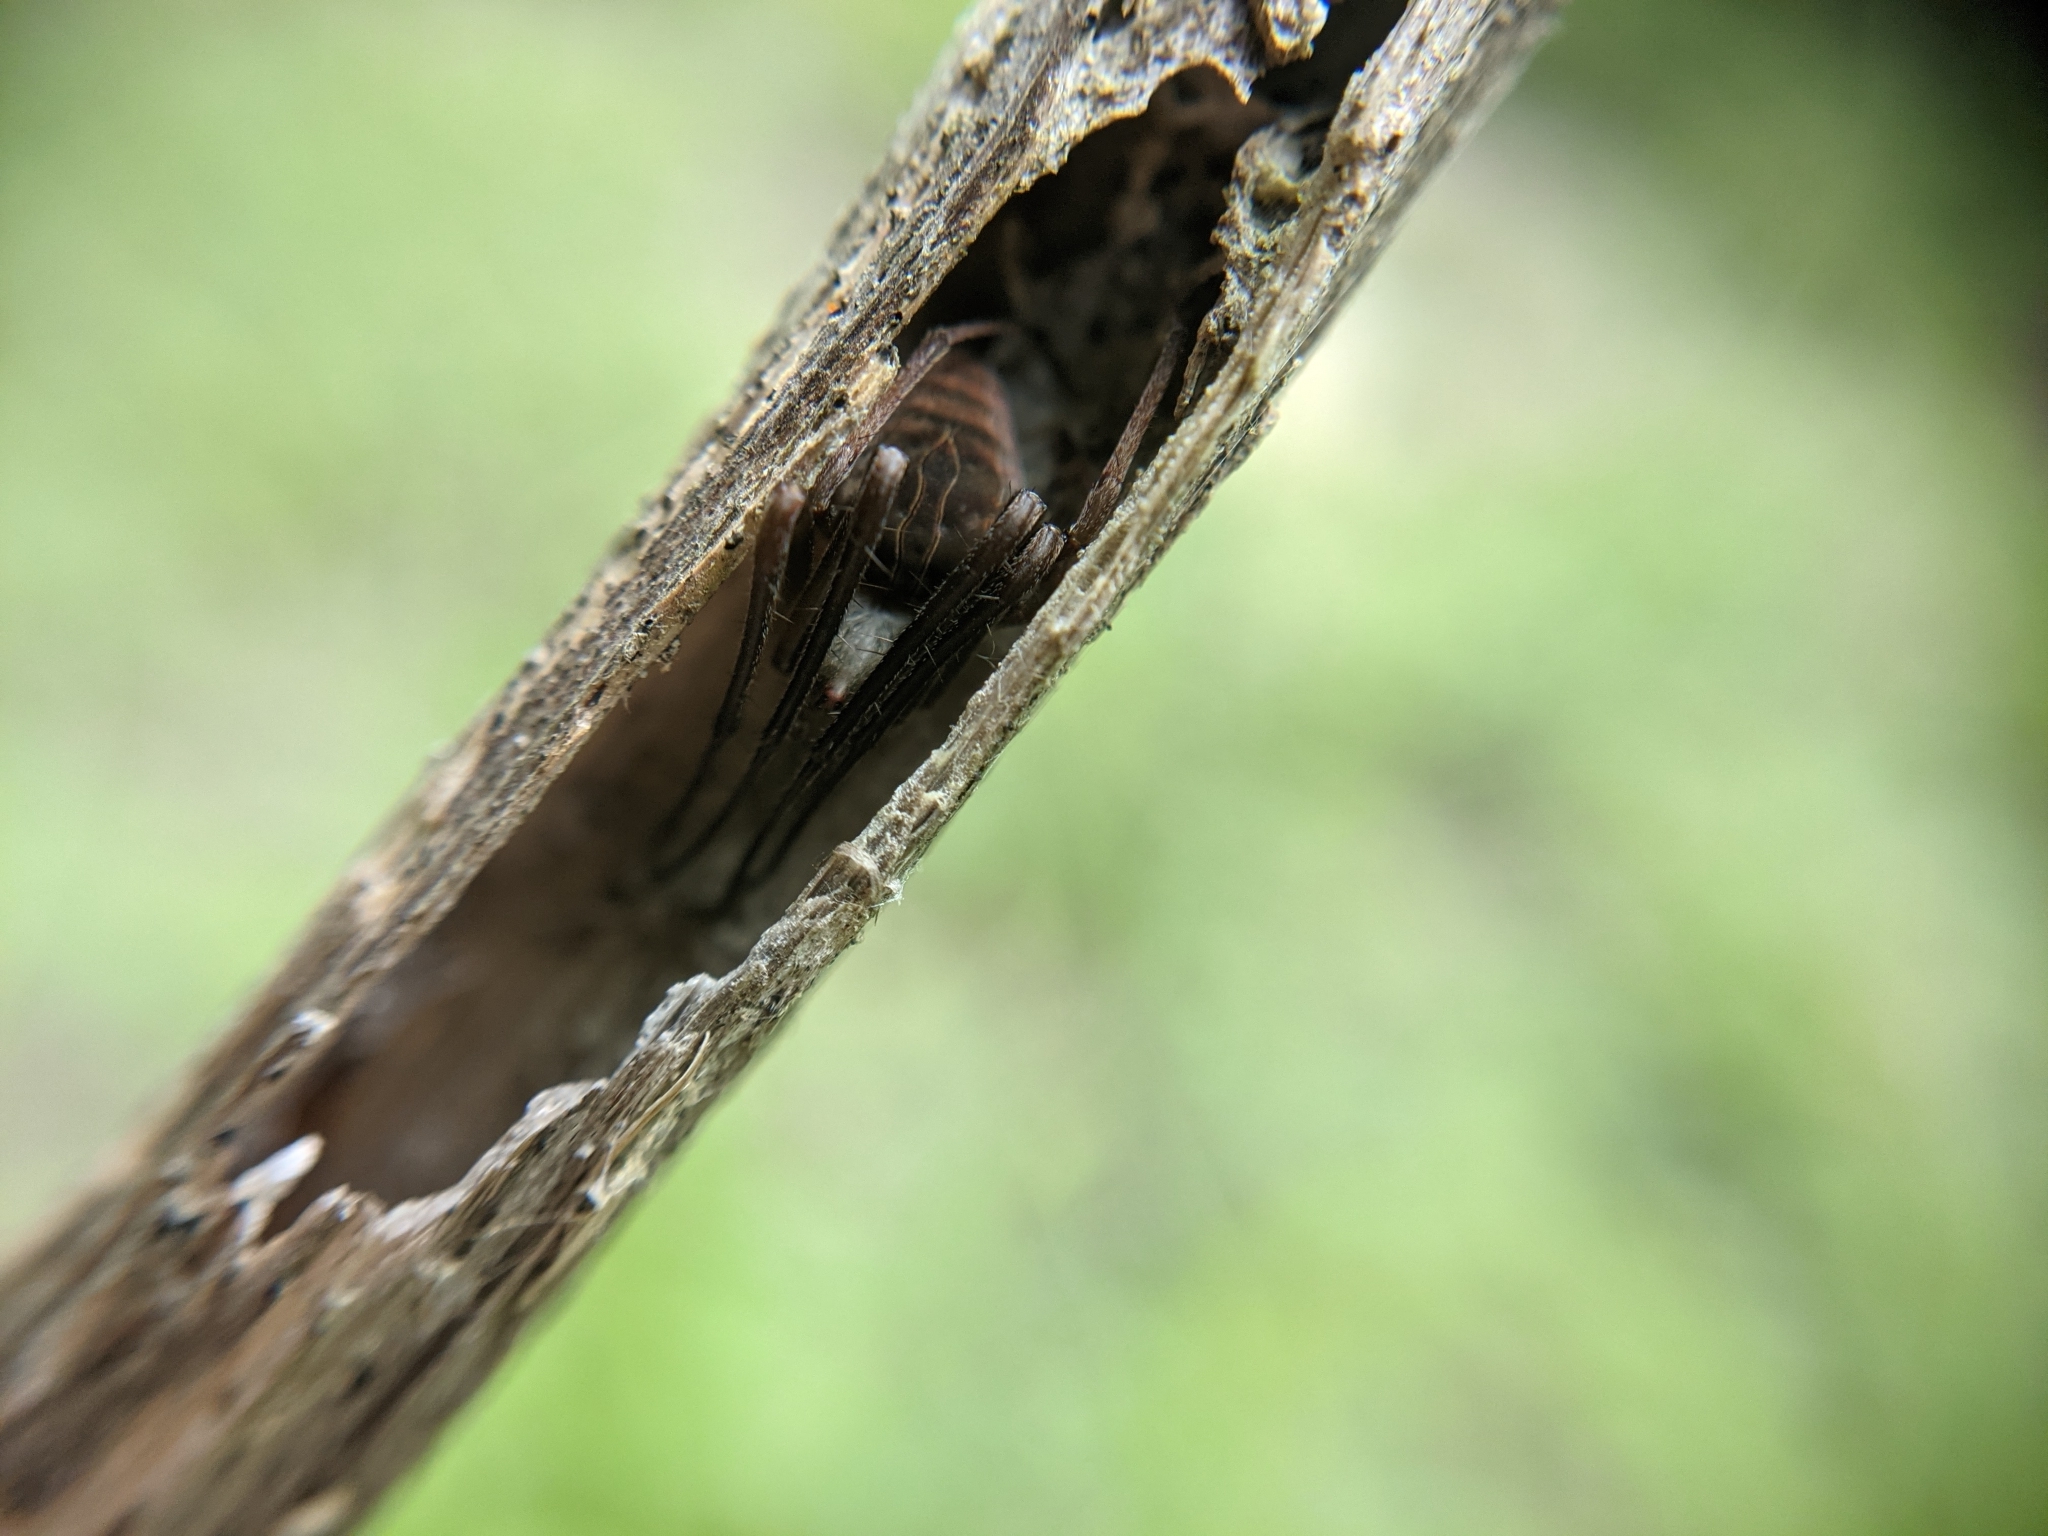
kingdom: Animalia
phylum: Arthropoda
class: Arachnida
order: Araneae
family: Araneidae
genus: Acacesia
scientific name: Acacesia hamata
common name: Orb weavers
